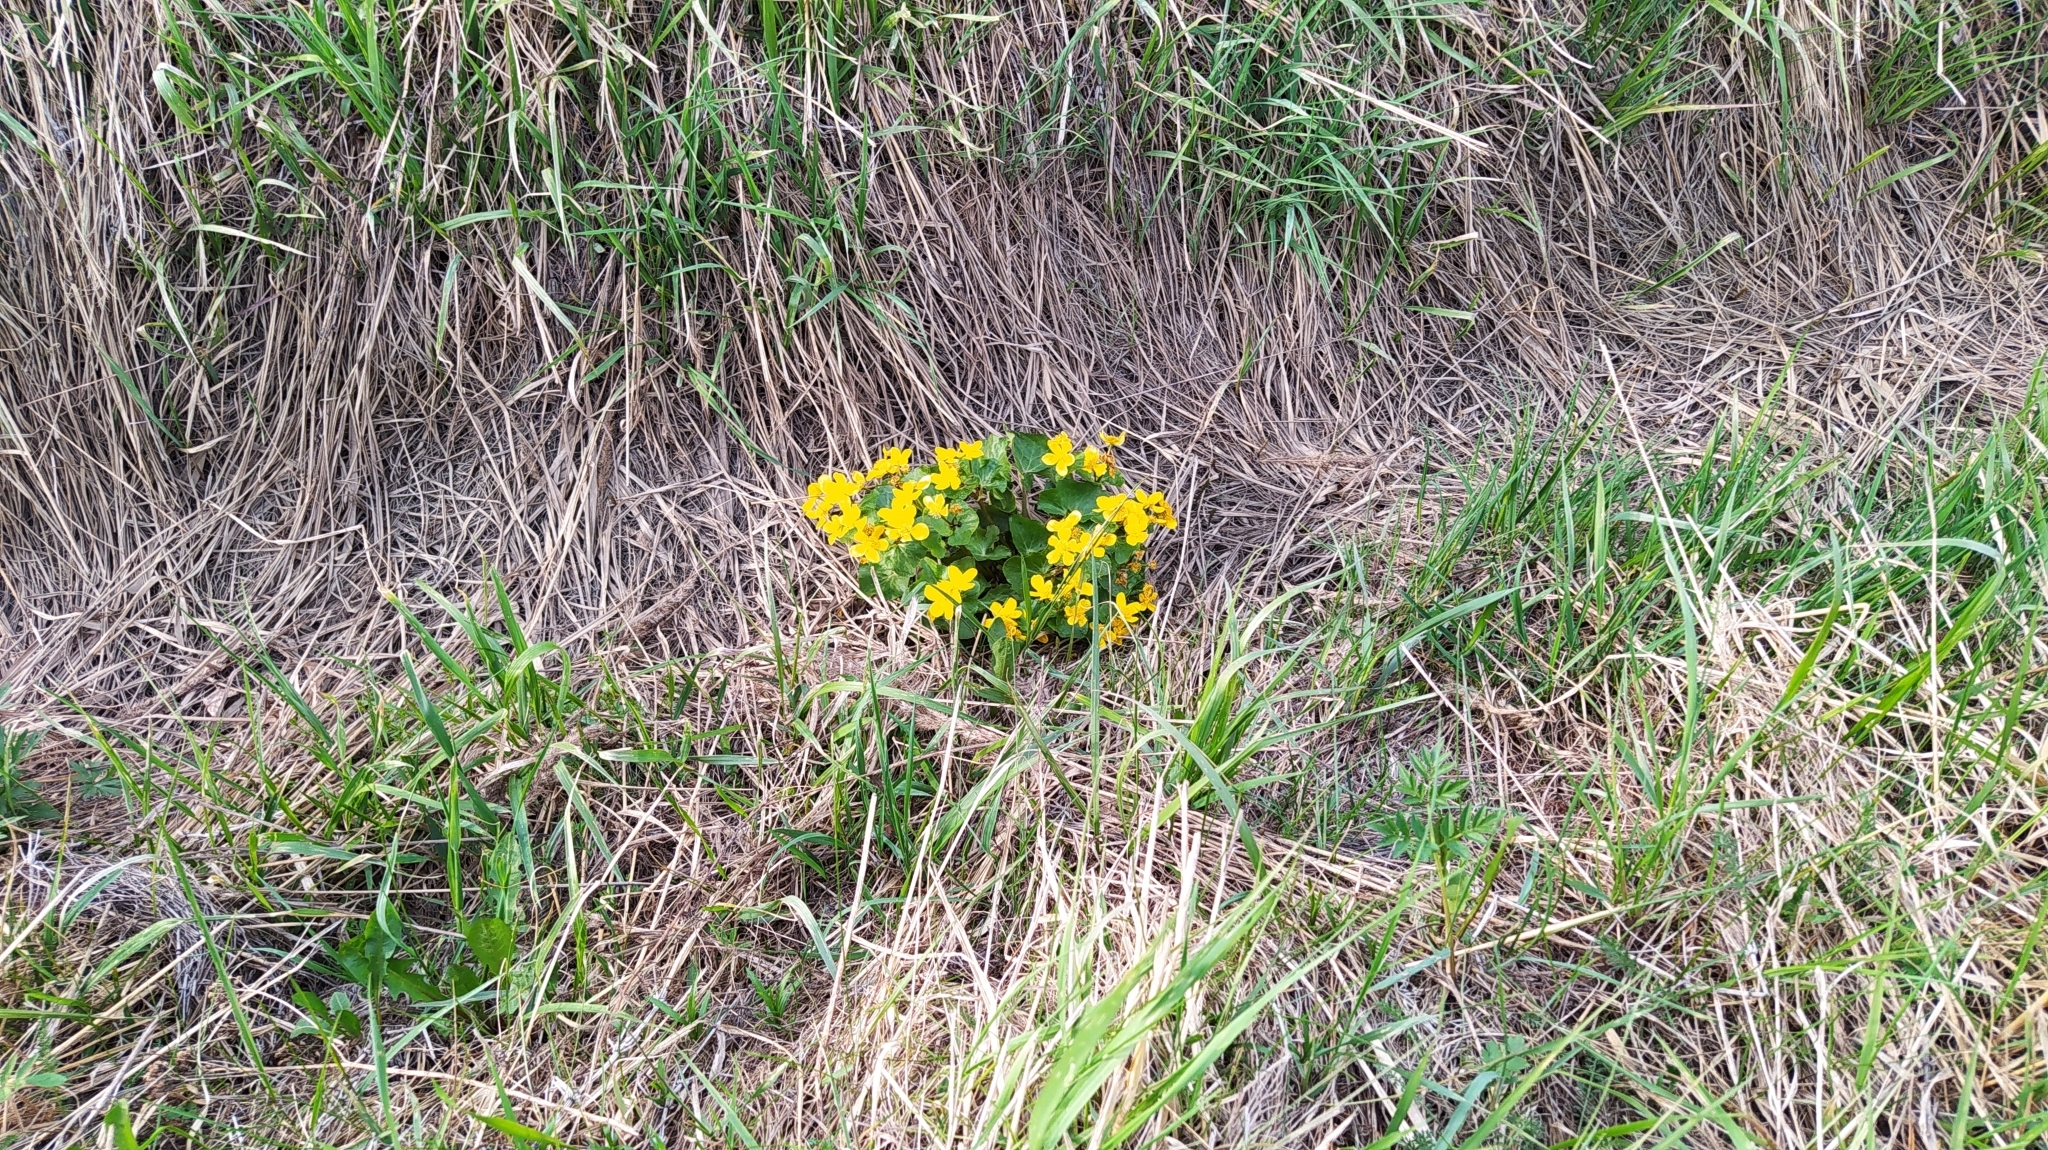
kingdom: Plantae
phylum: Tracheophyta
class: Magnoliopsida
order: Ranunculales
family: Ranunculaceae
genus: Caltha
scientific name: Caltha palustris
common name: Marsh marigold
